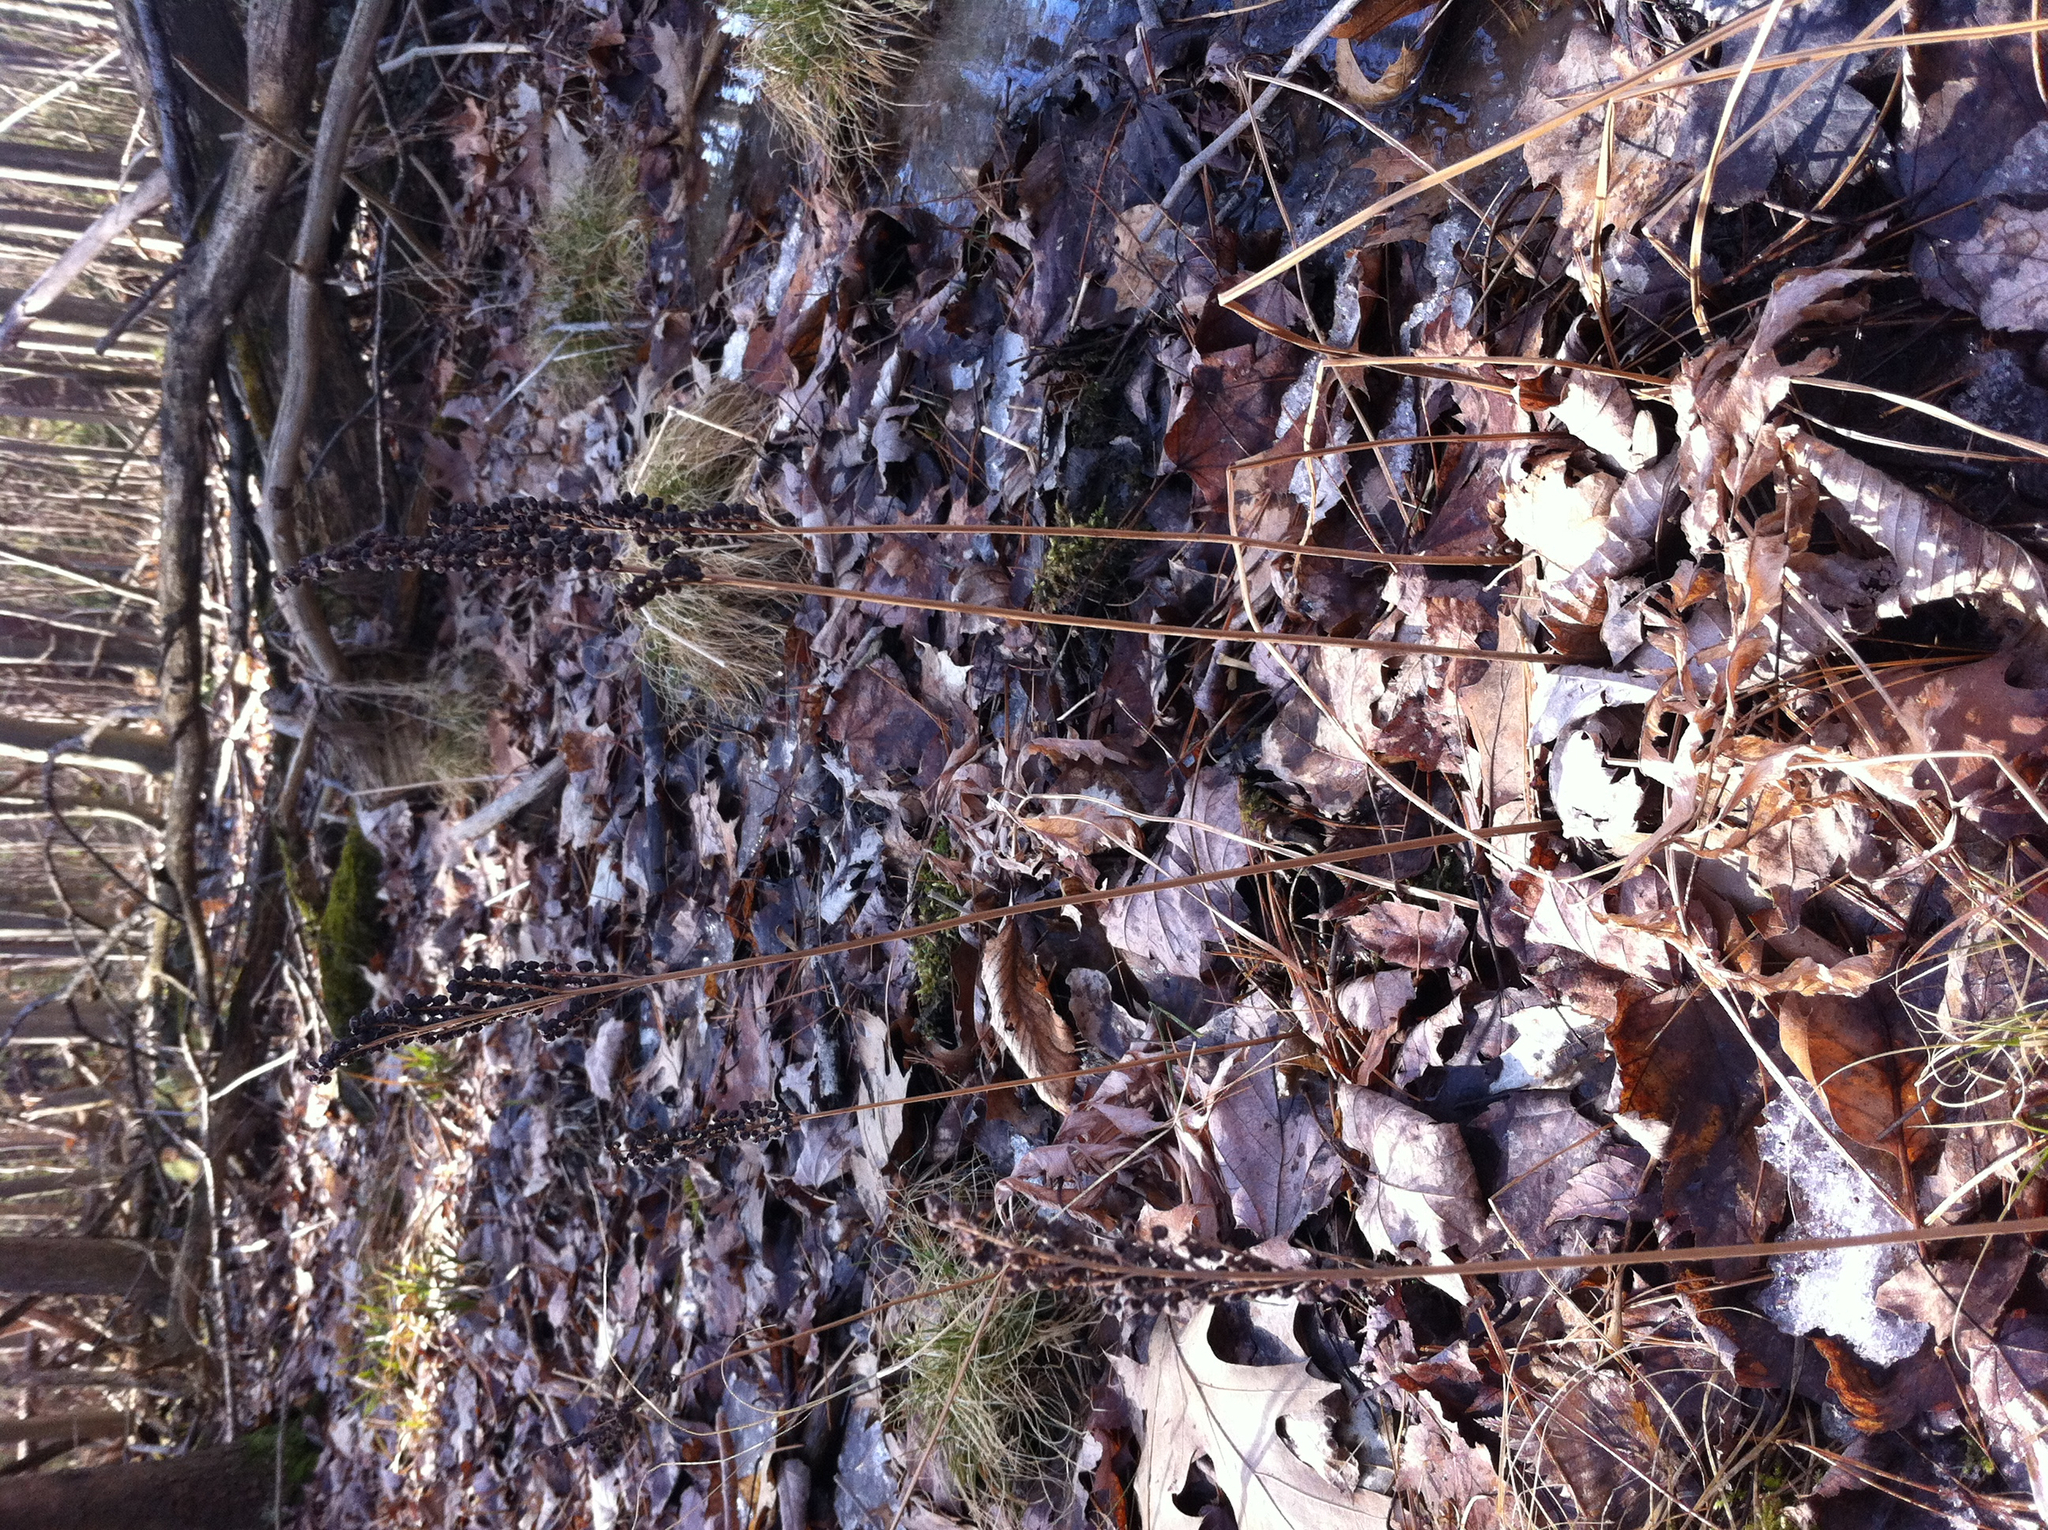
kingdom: Plantae
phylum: Tracheophyta
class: Polypodiopsida
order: Polypodiales
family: Onocleaceae
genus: Onoclea
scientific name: Onoclea sensibilis
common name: Sensitive fern
